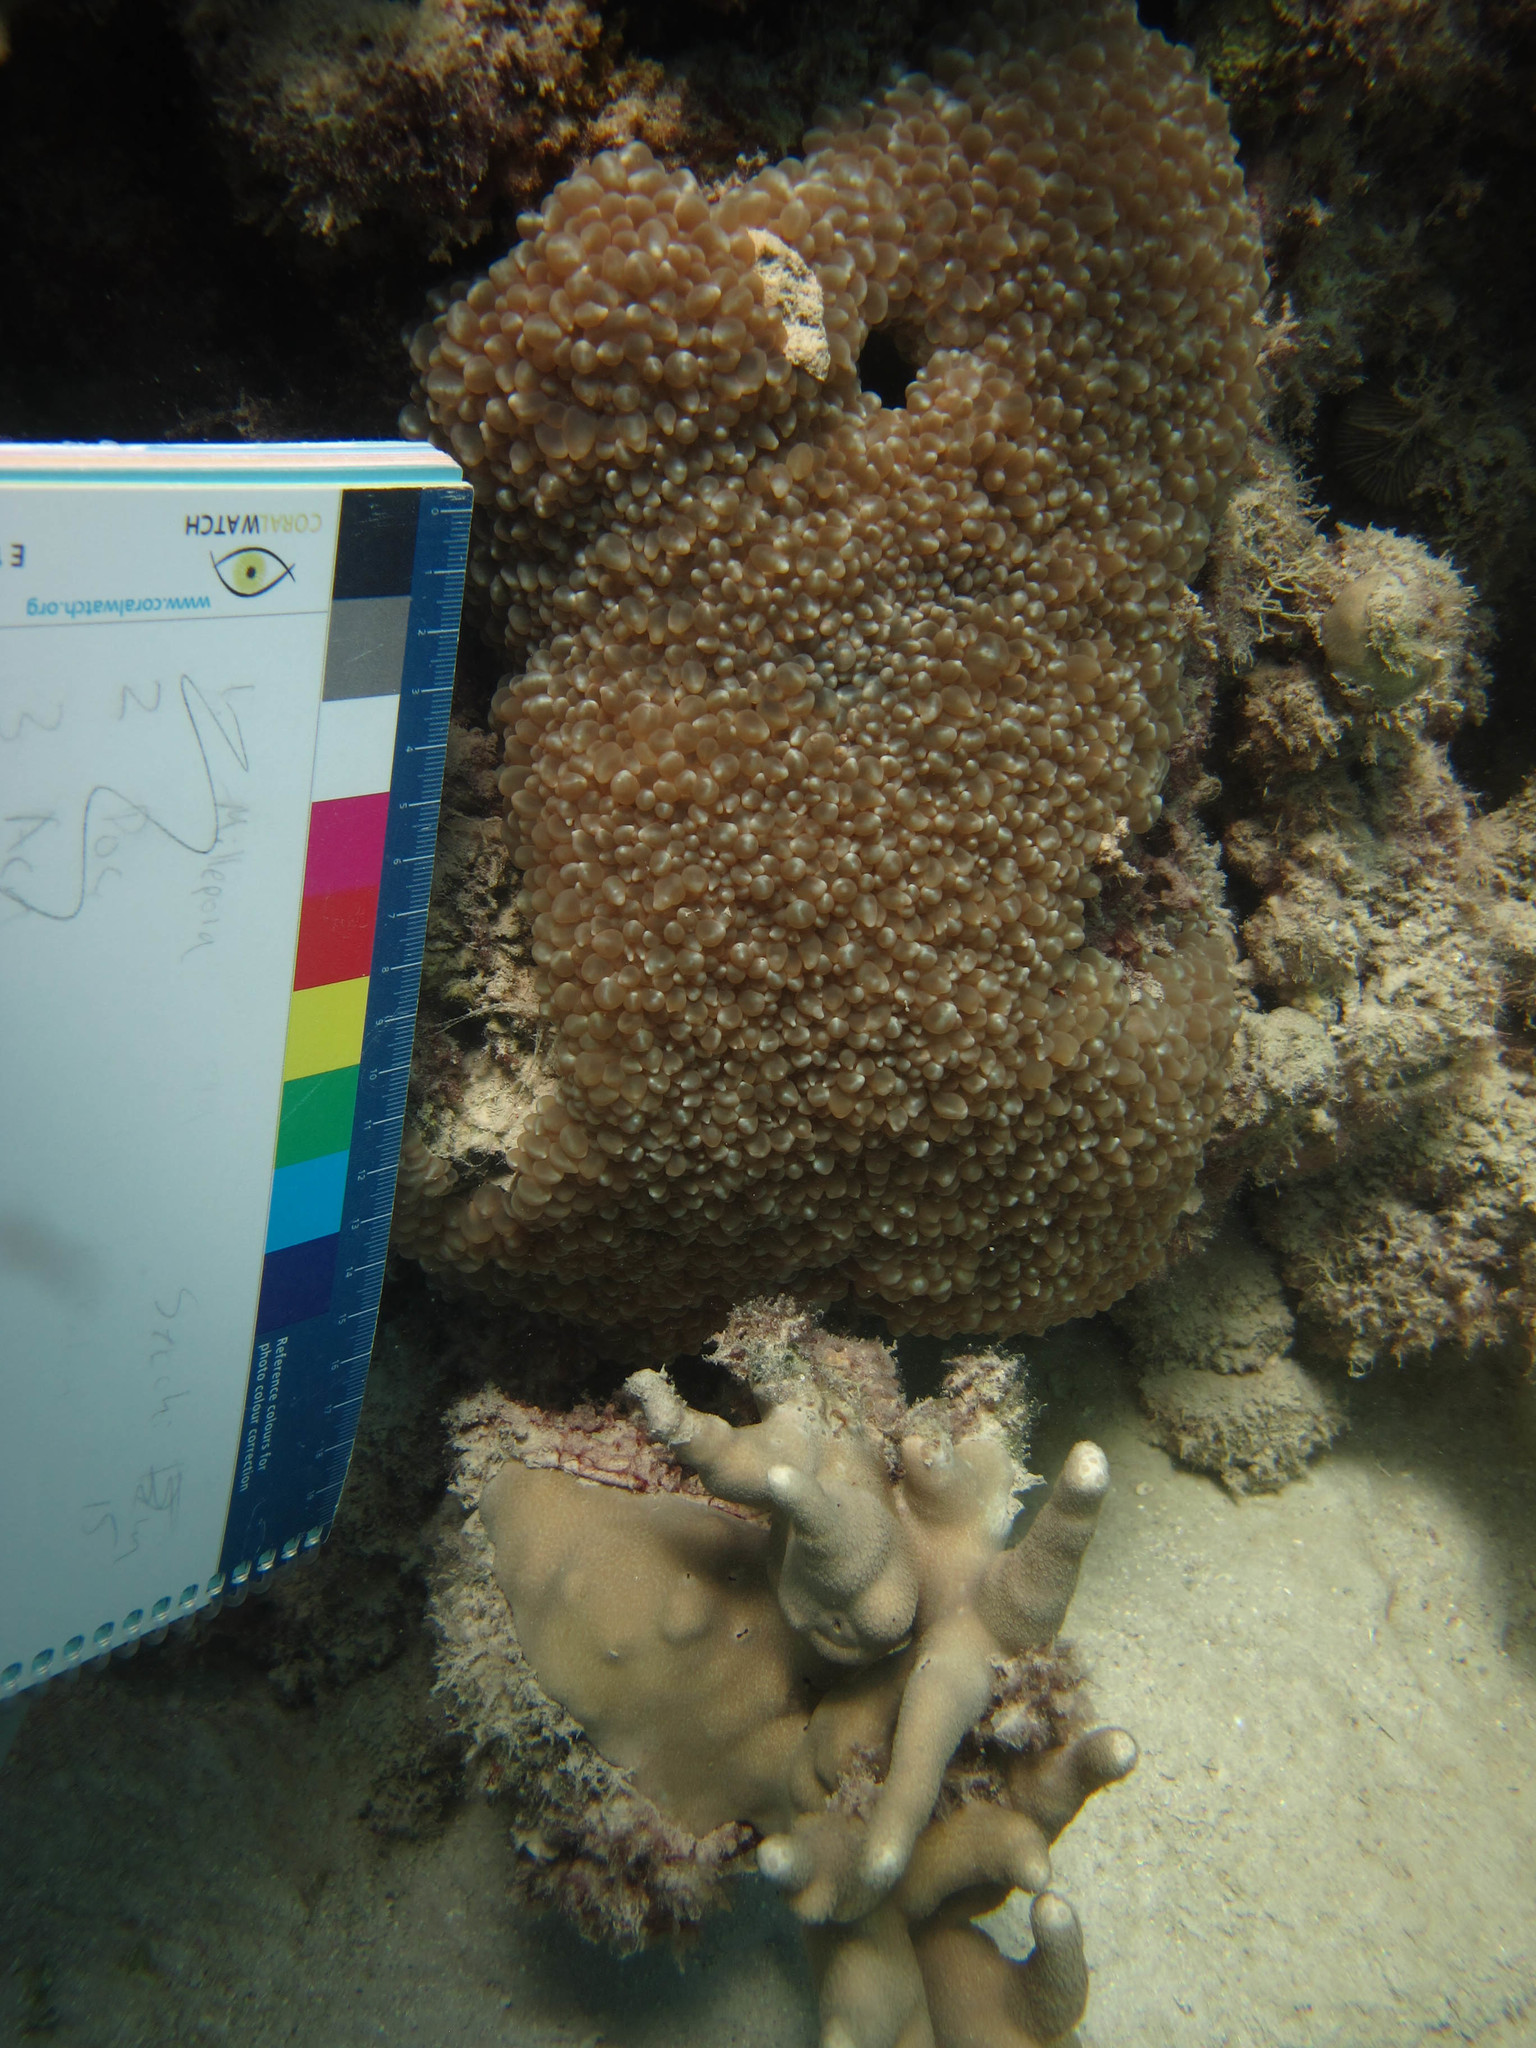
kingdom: Animalia
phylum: Cnidaria
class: Anthozoa
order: Scleractinia
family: Plerogyridae
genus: Physogyra
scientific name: Physogyra lichtensteini
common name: Tipped bubblegum coral
